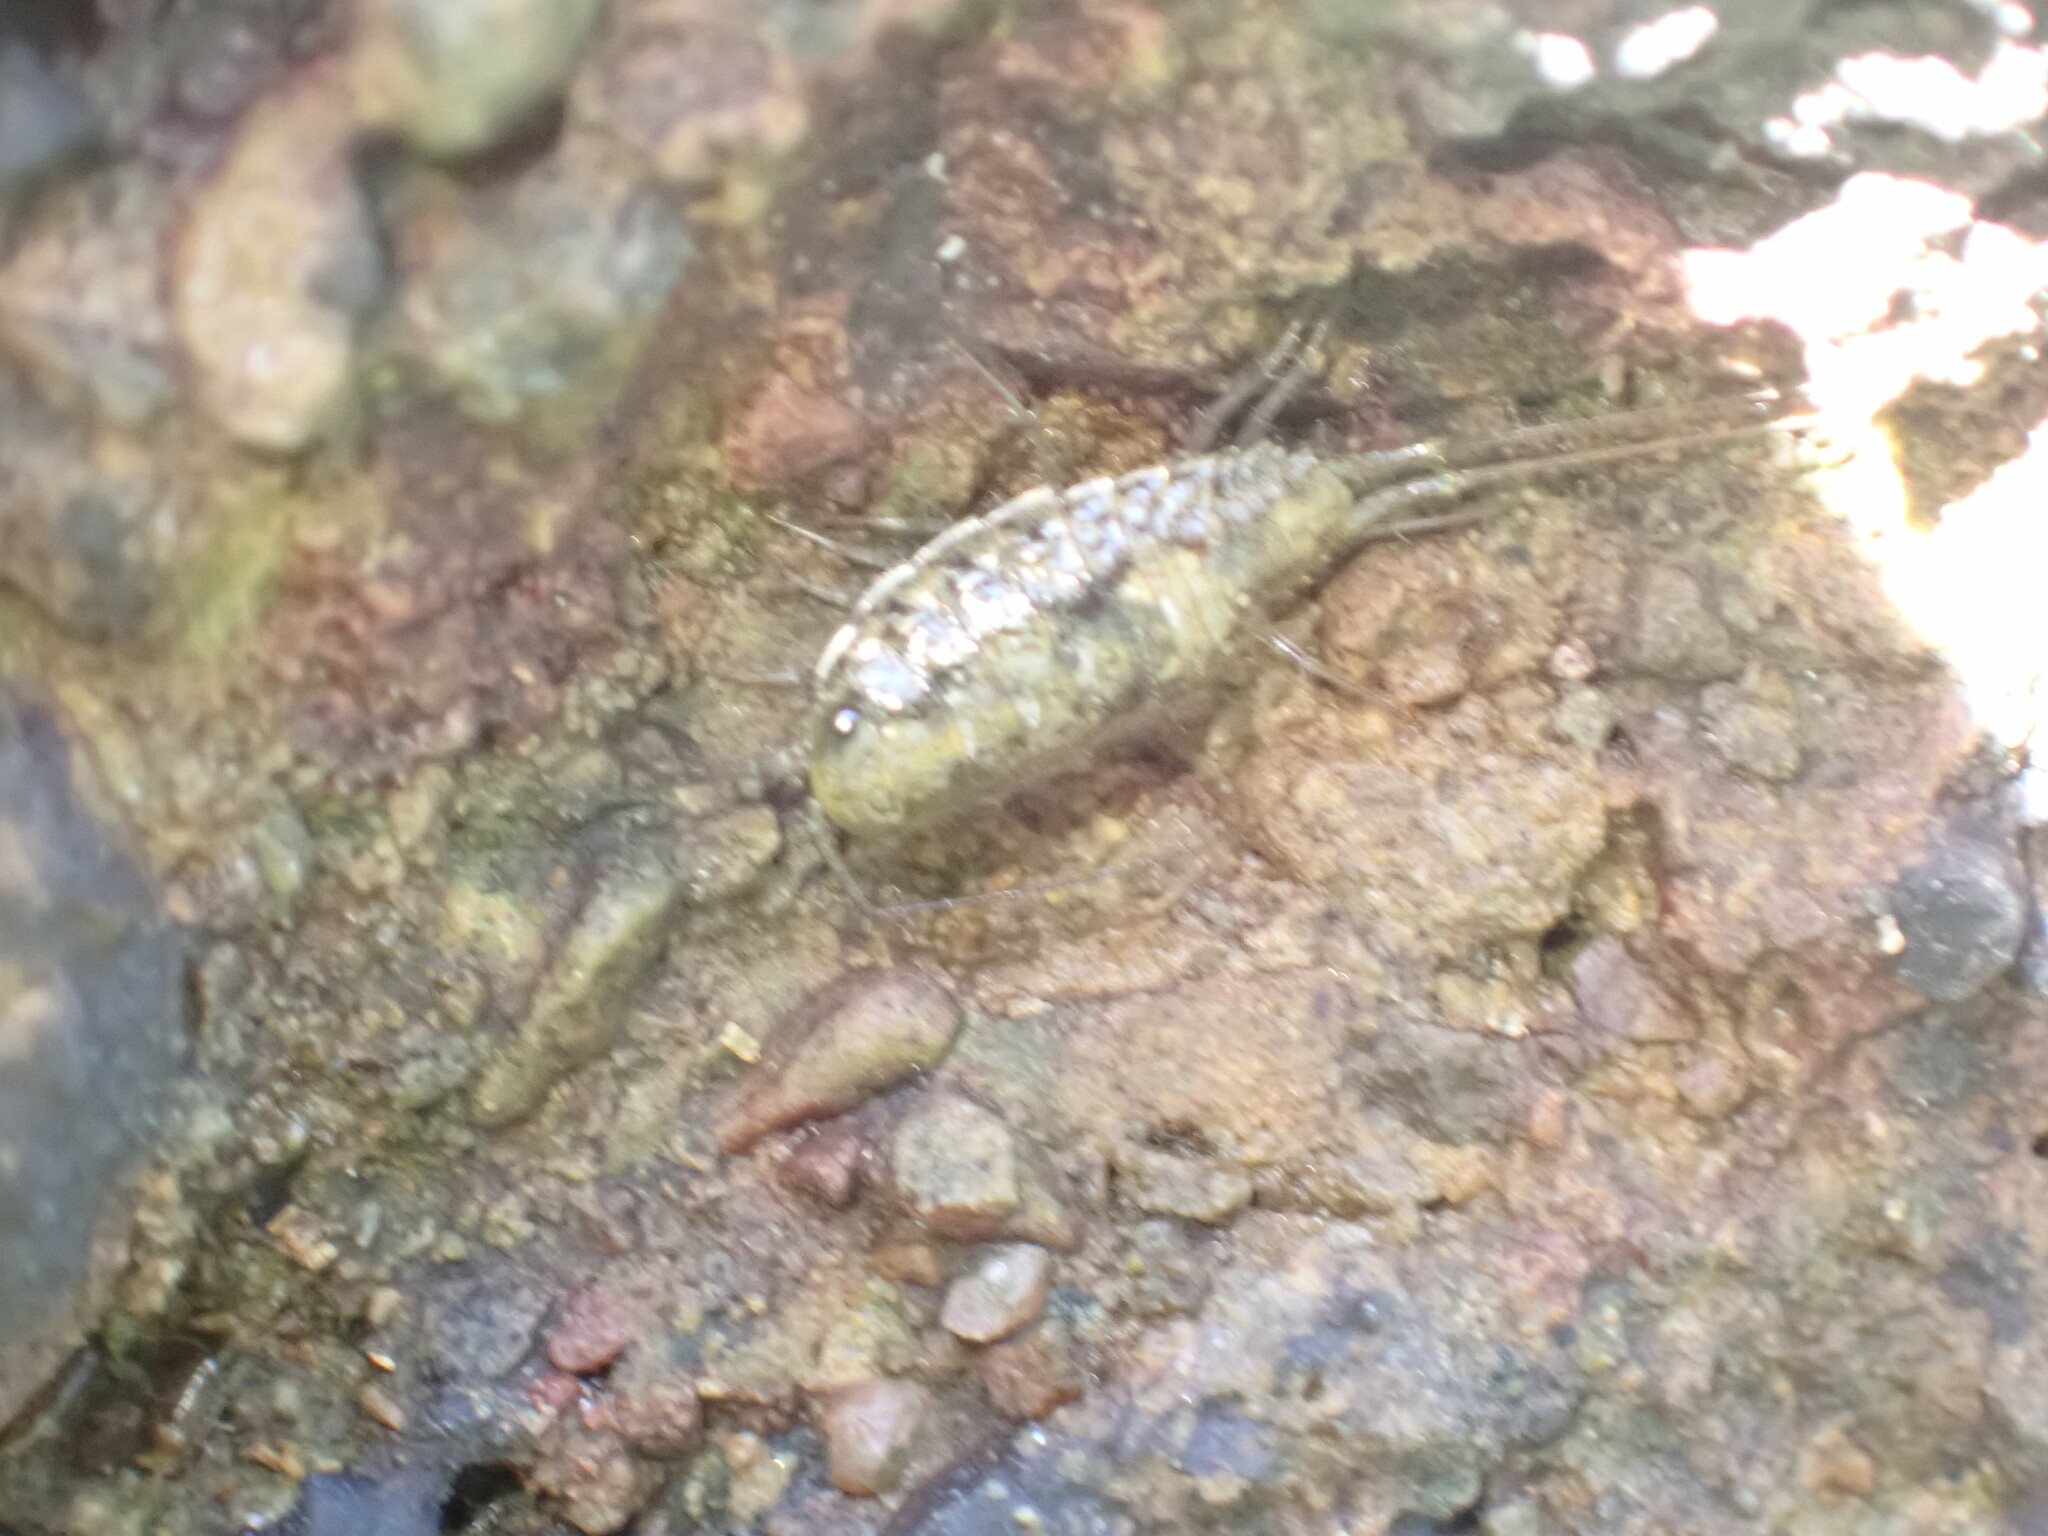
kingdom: Animalia
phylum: Arthropoda
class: Malacostraca
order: Isopoda
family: Ligiidae
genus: Ligia
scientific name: Ligia italica
